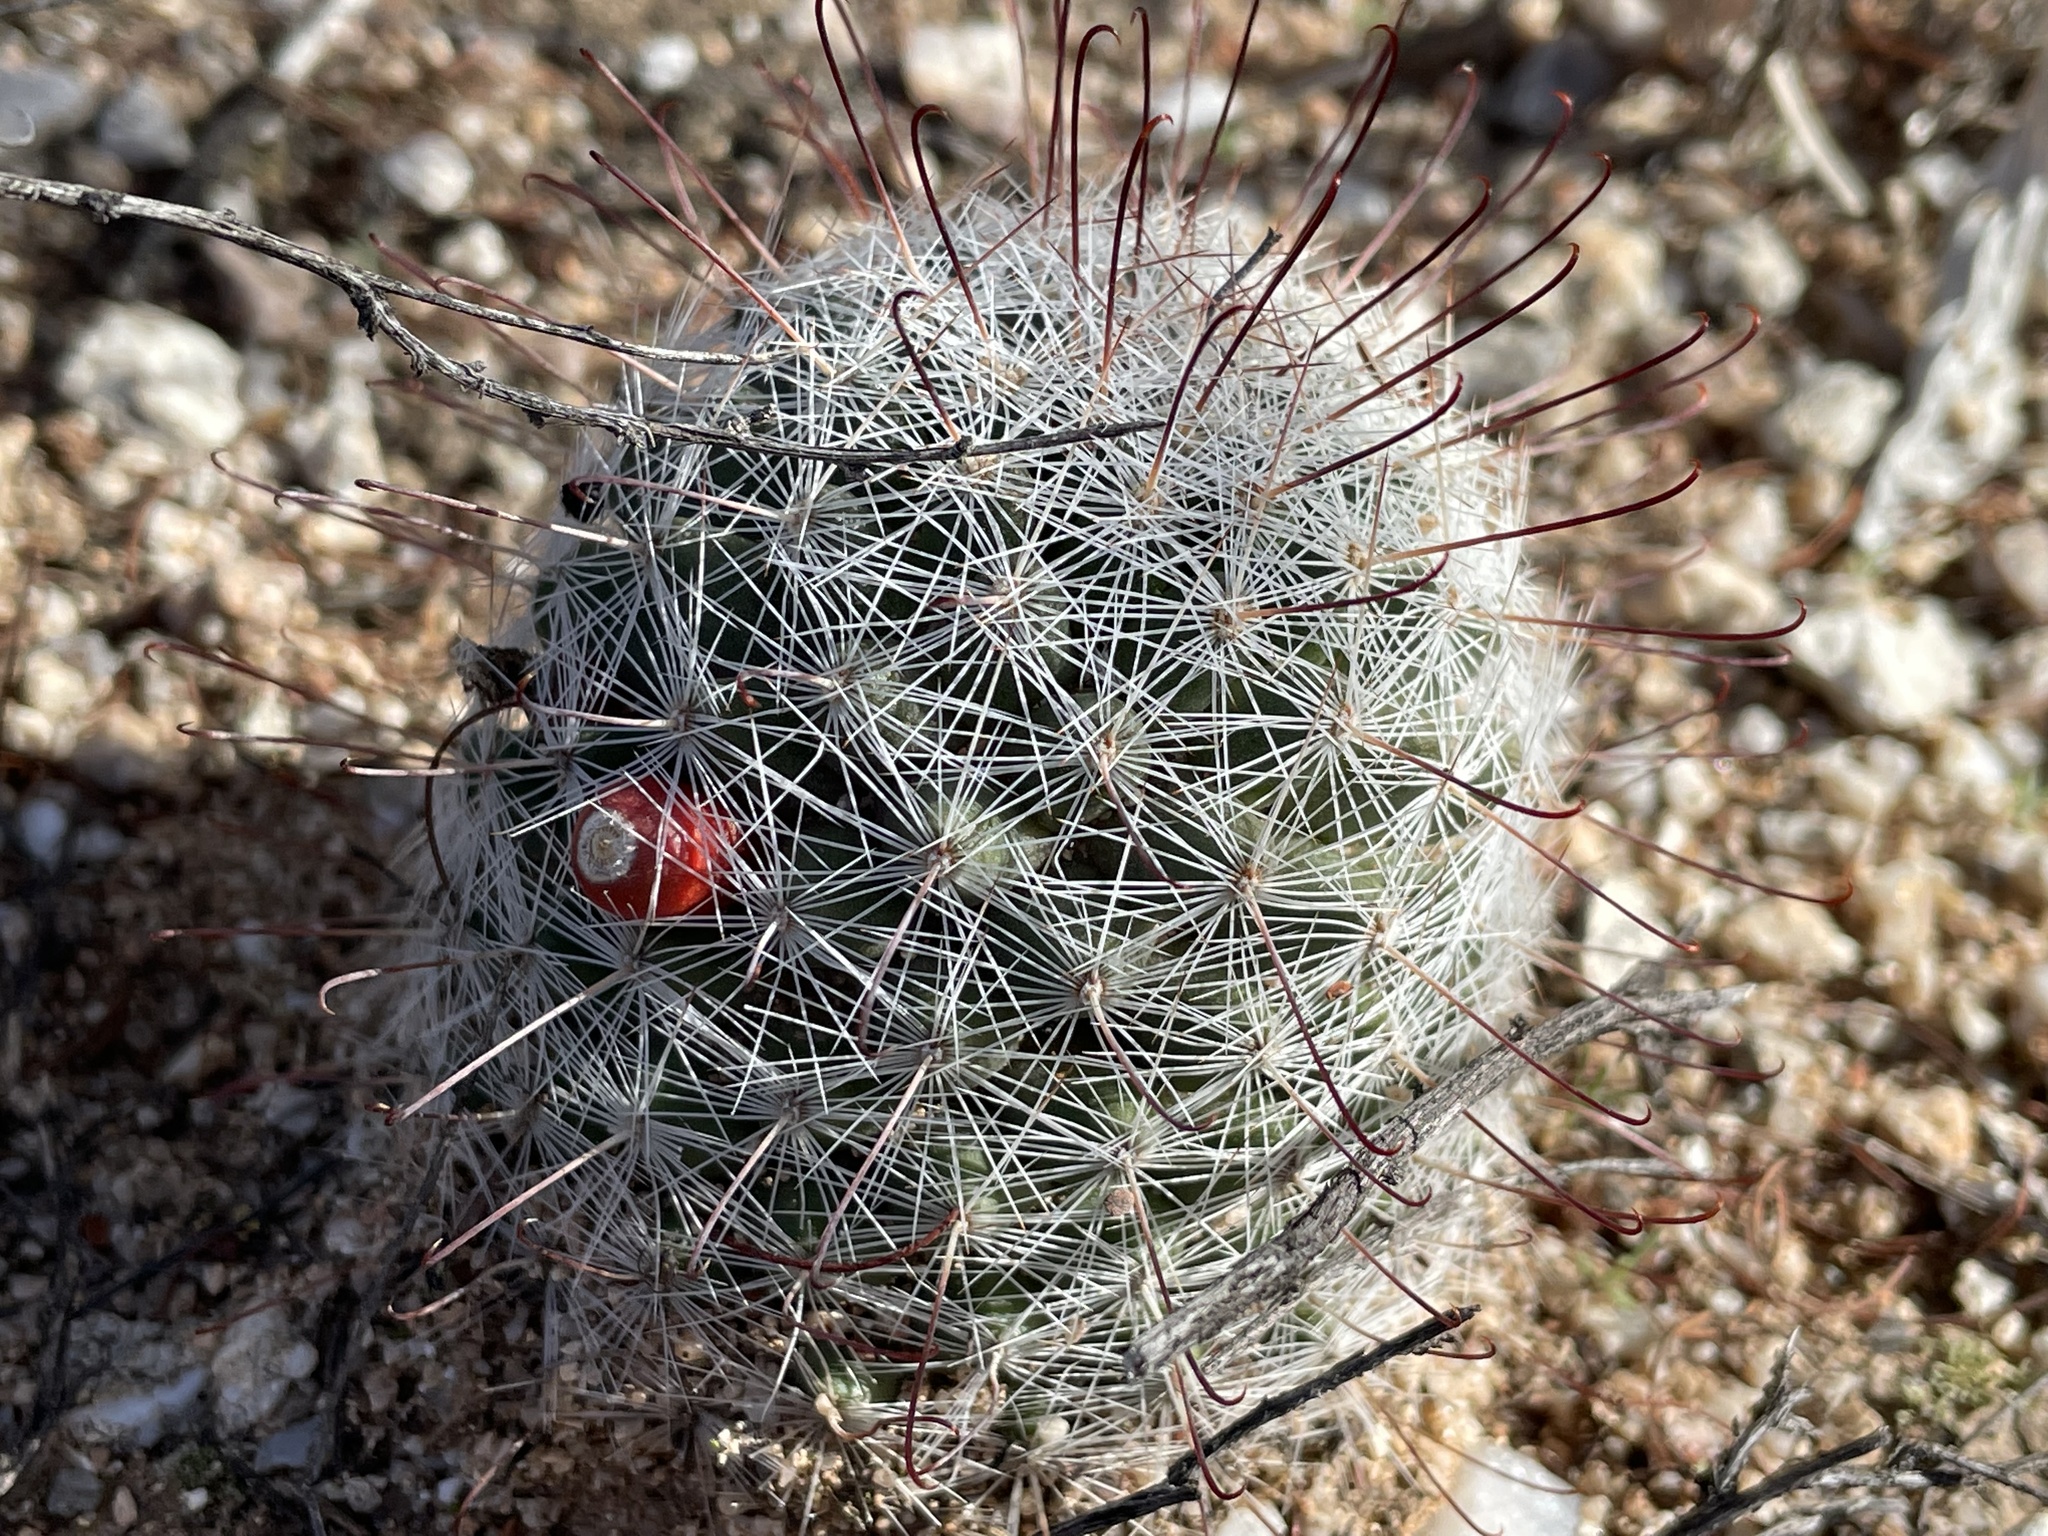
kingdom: Plantae
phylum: Tracheophyta
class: Magnoliopsida
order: Caryophyllales
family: Cactaceae
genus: Cochemiea
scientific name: Cochemiea grahamii
